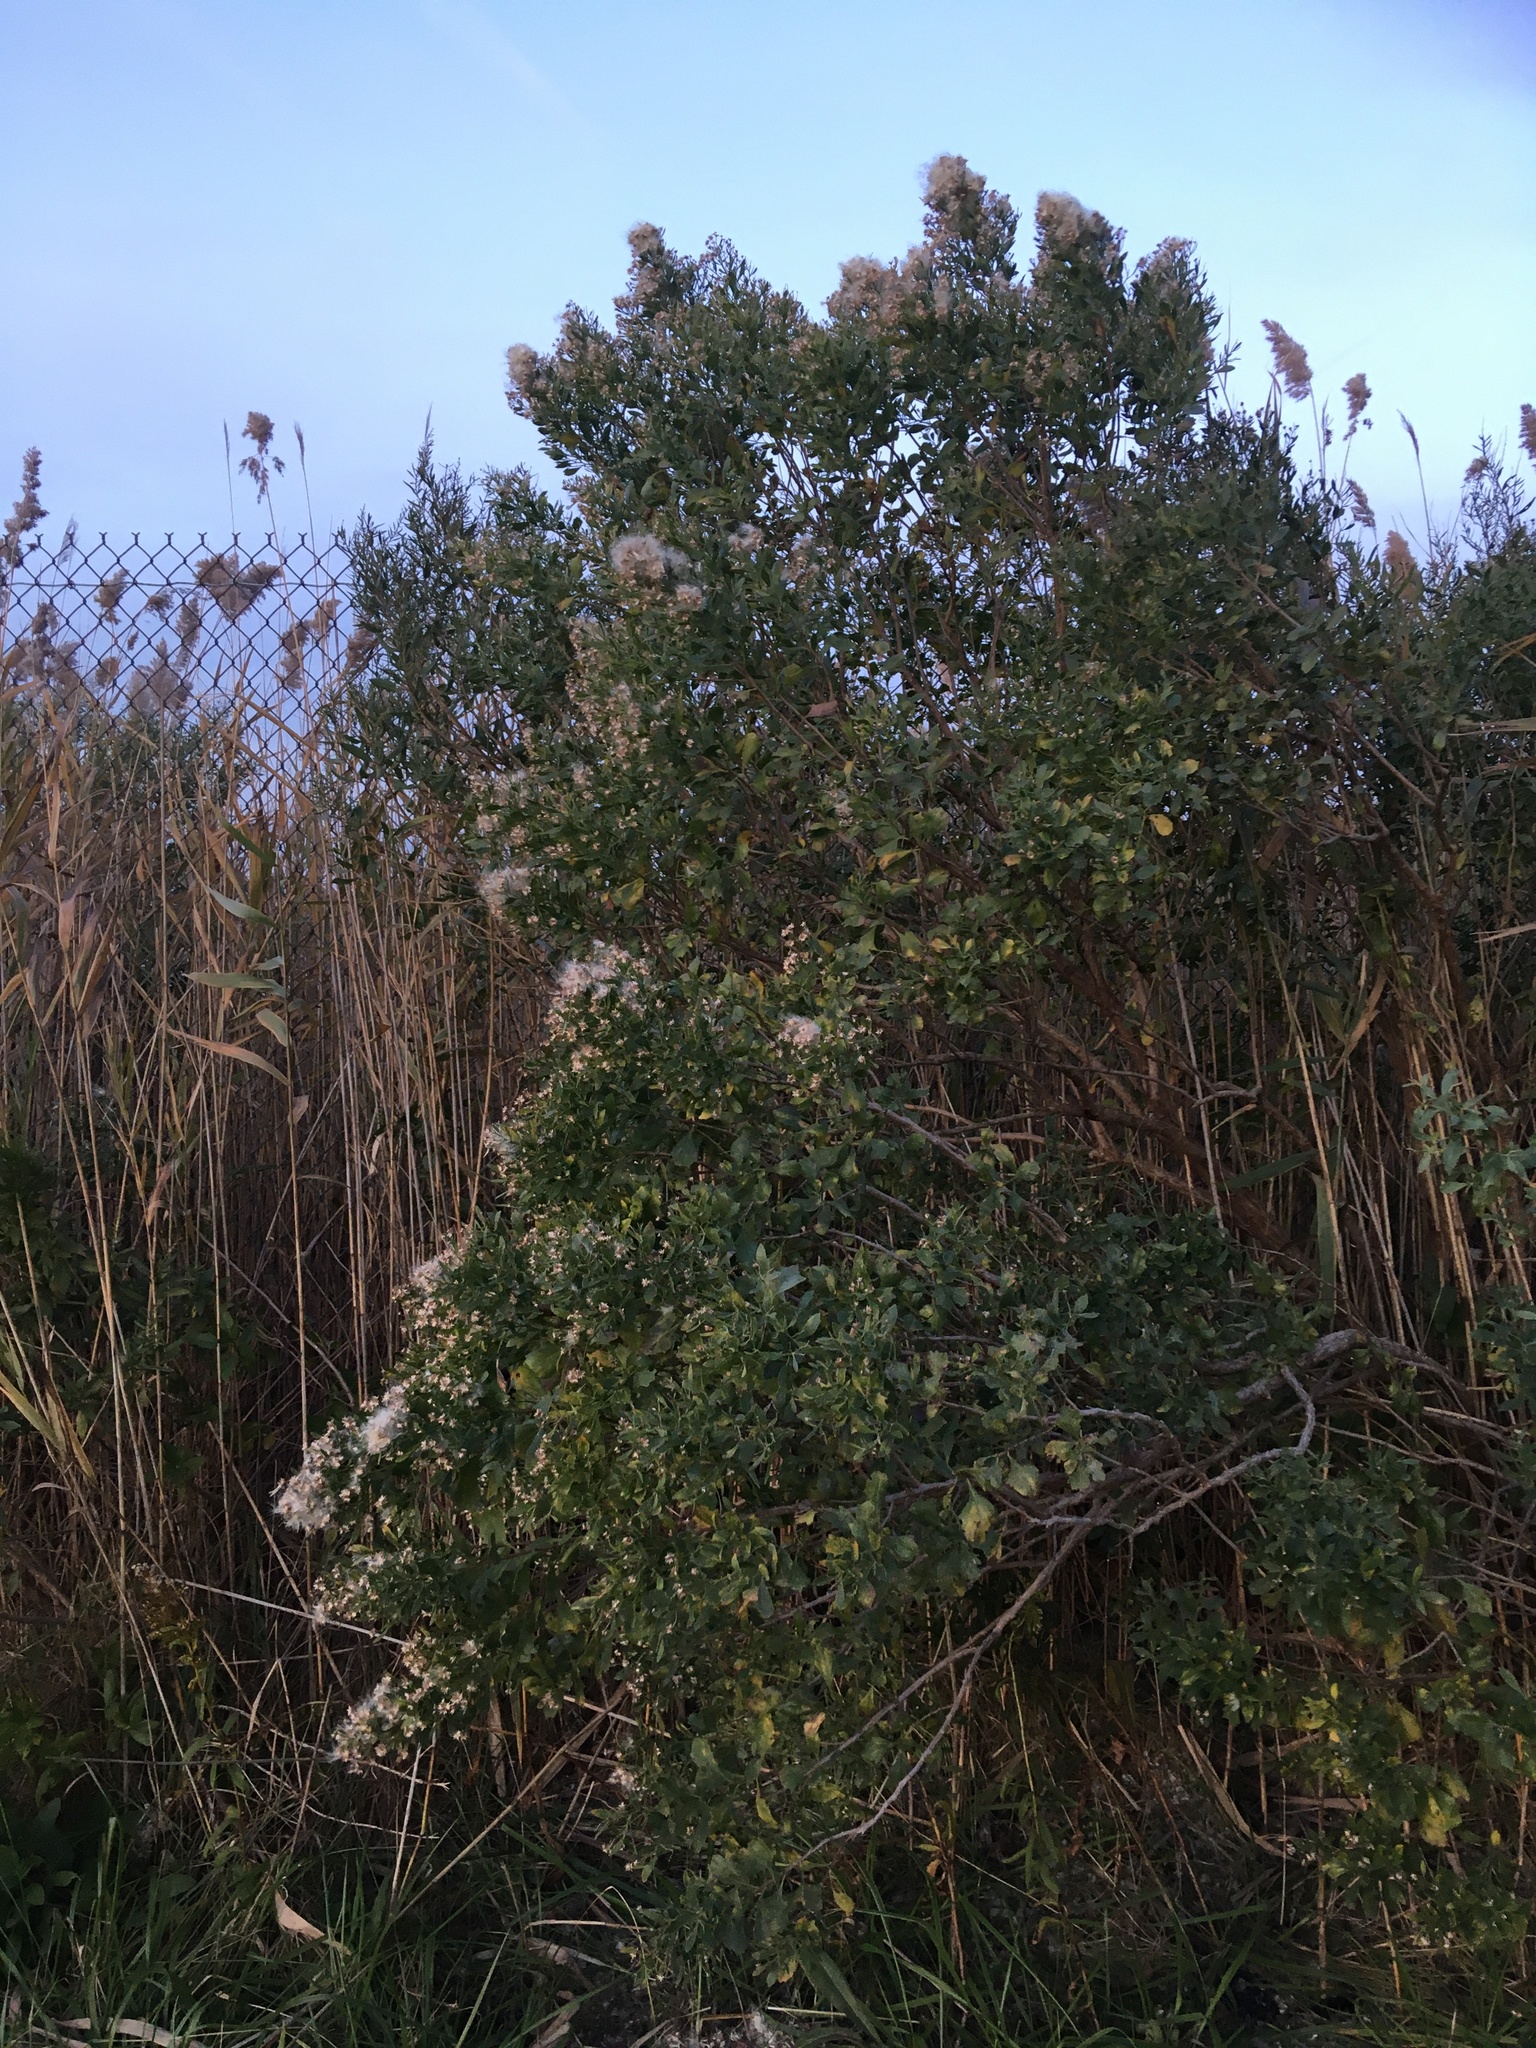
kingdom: Plantae
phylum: Tracheophyta
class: Magnoliopsida
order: Asterales
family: Asteraceae
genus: Baccharis
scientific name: Baccharis halimifolia
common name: Eastern baccharis
